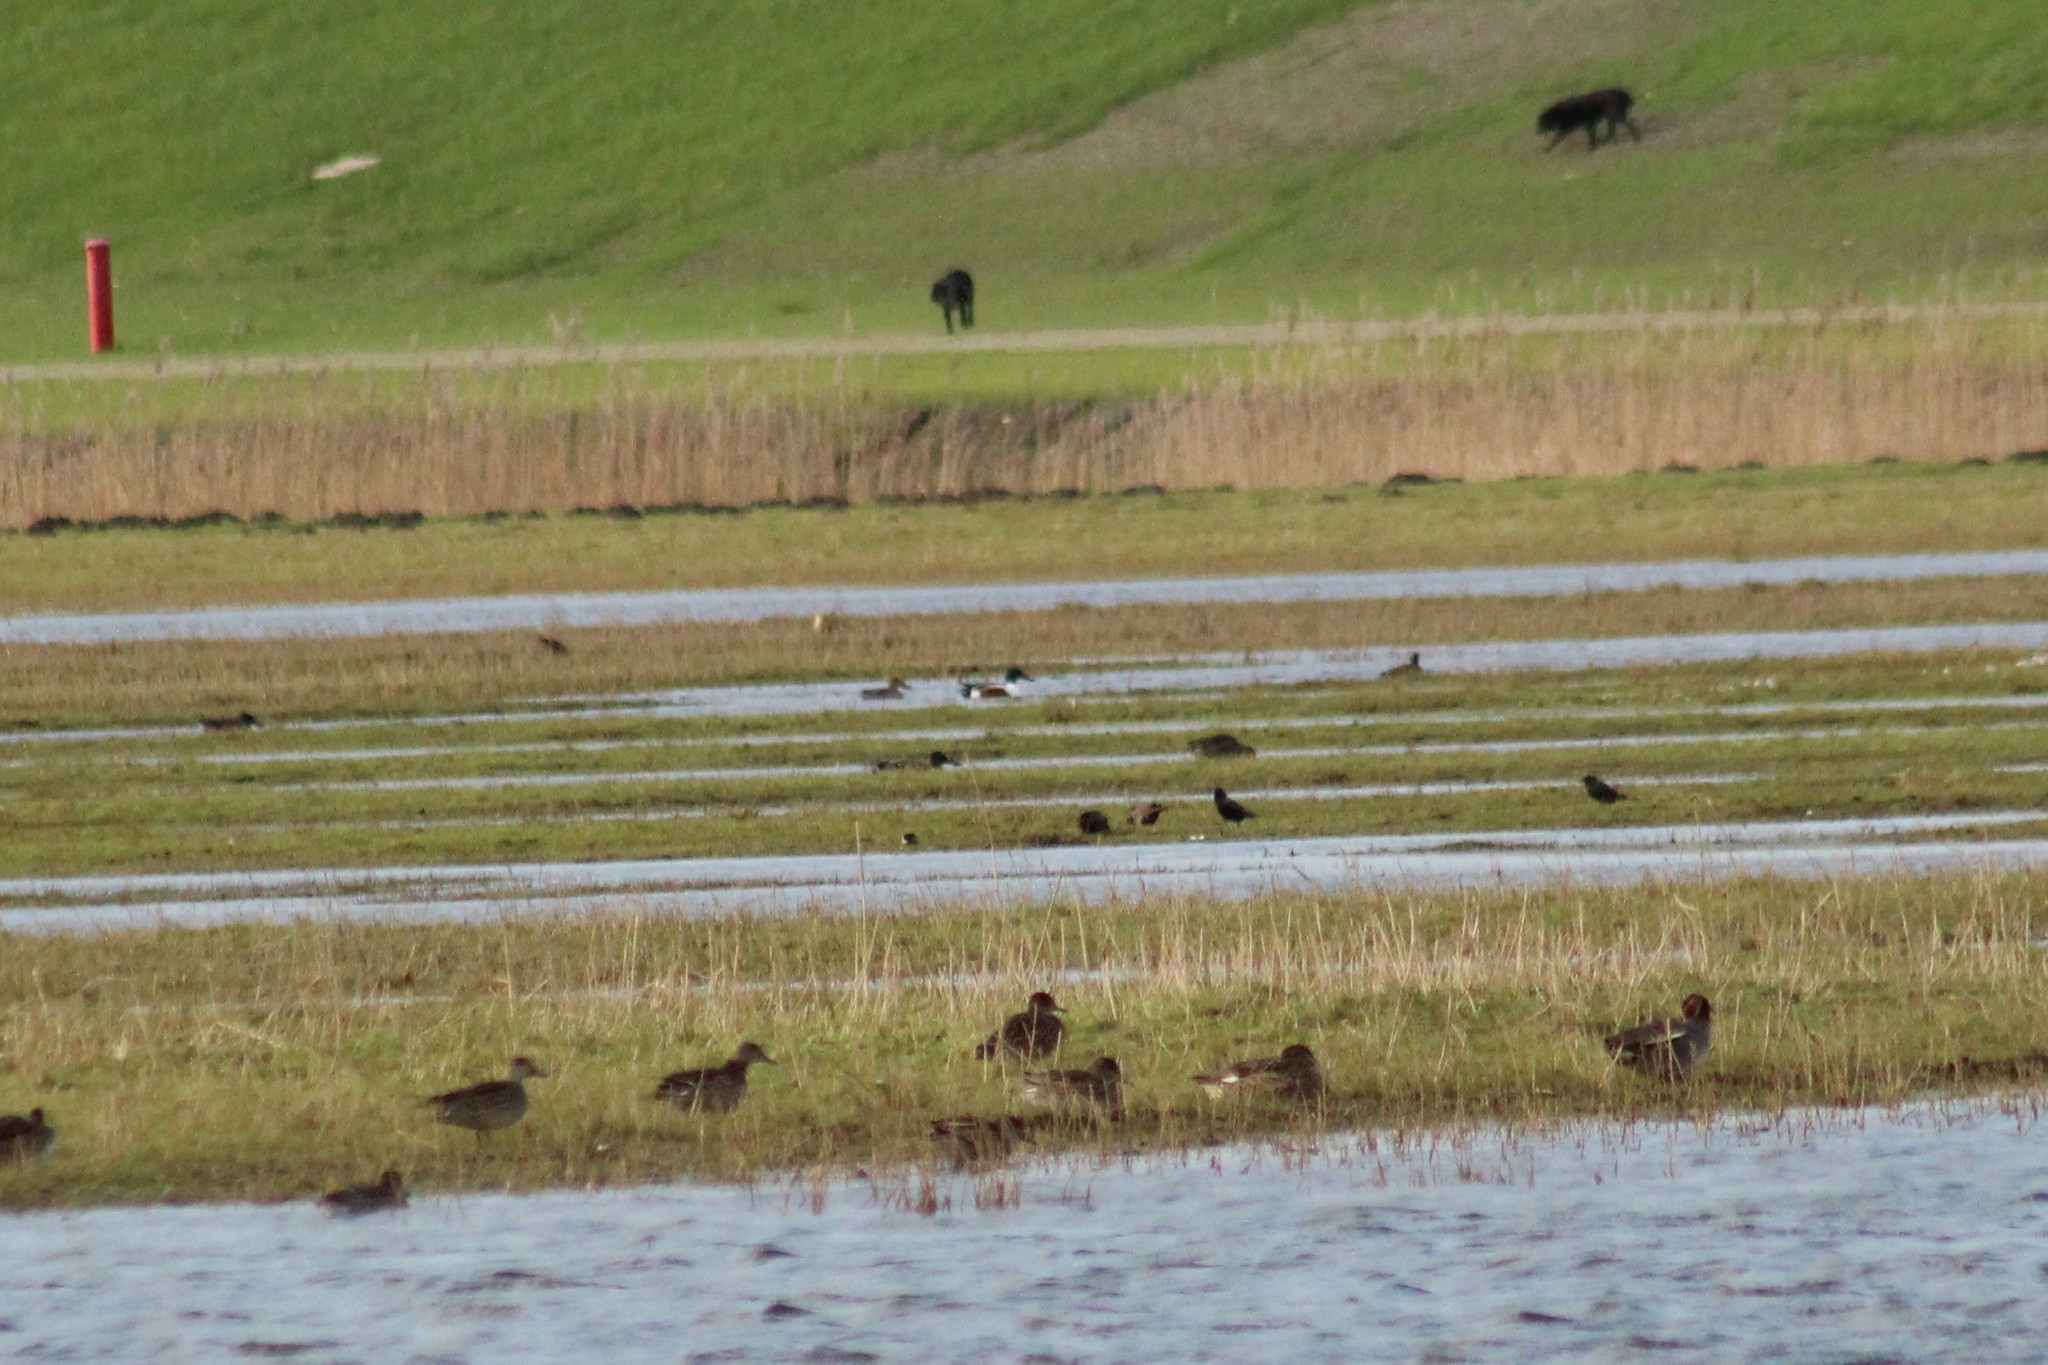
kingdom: Animalia
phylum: Chordata
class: Aves
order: Anseriformes
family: Anatidae
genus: Spatula
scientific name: Spatula clypeata
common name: Northern shoveler
